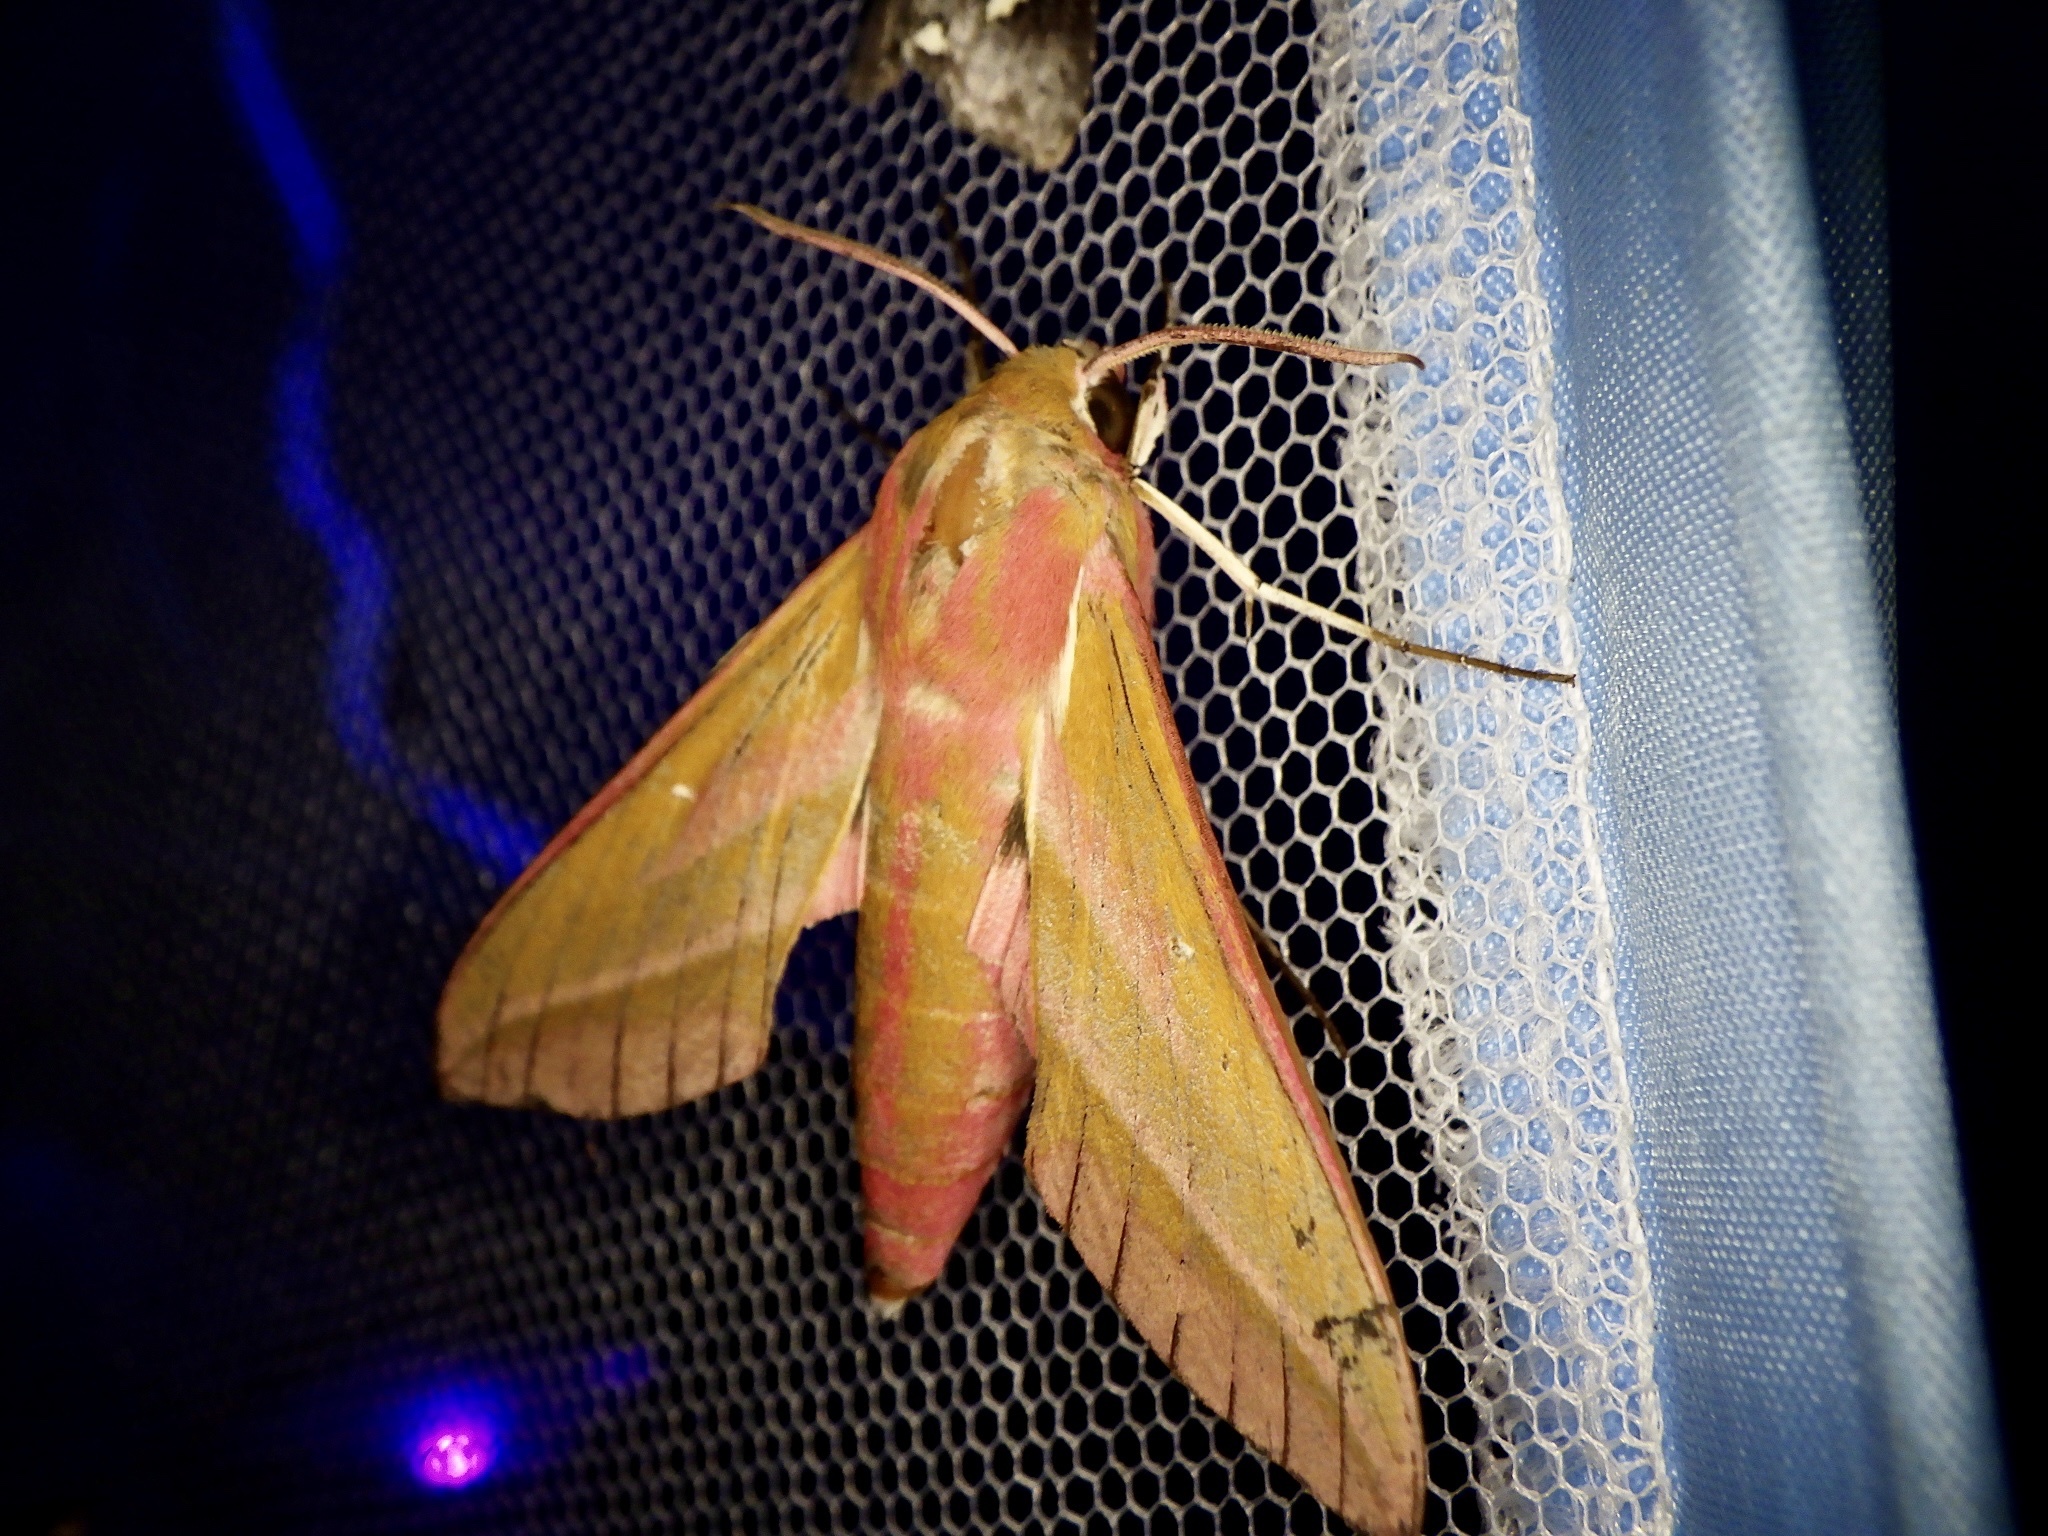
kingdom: Animalia
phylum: Arthropoda
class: Insecta
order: Lepidoptera
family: Sphingidae
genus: Deilephila
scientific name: Deilephila elpenor
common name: Elephant hawk-moth
